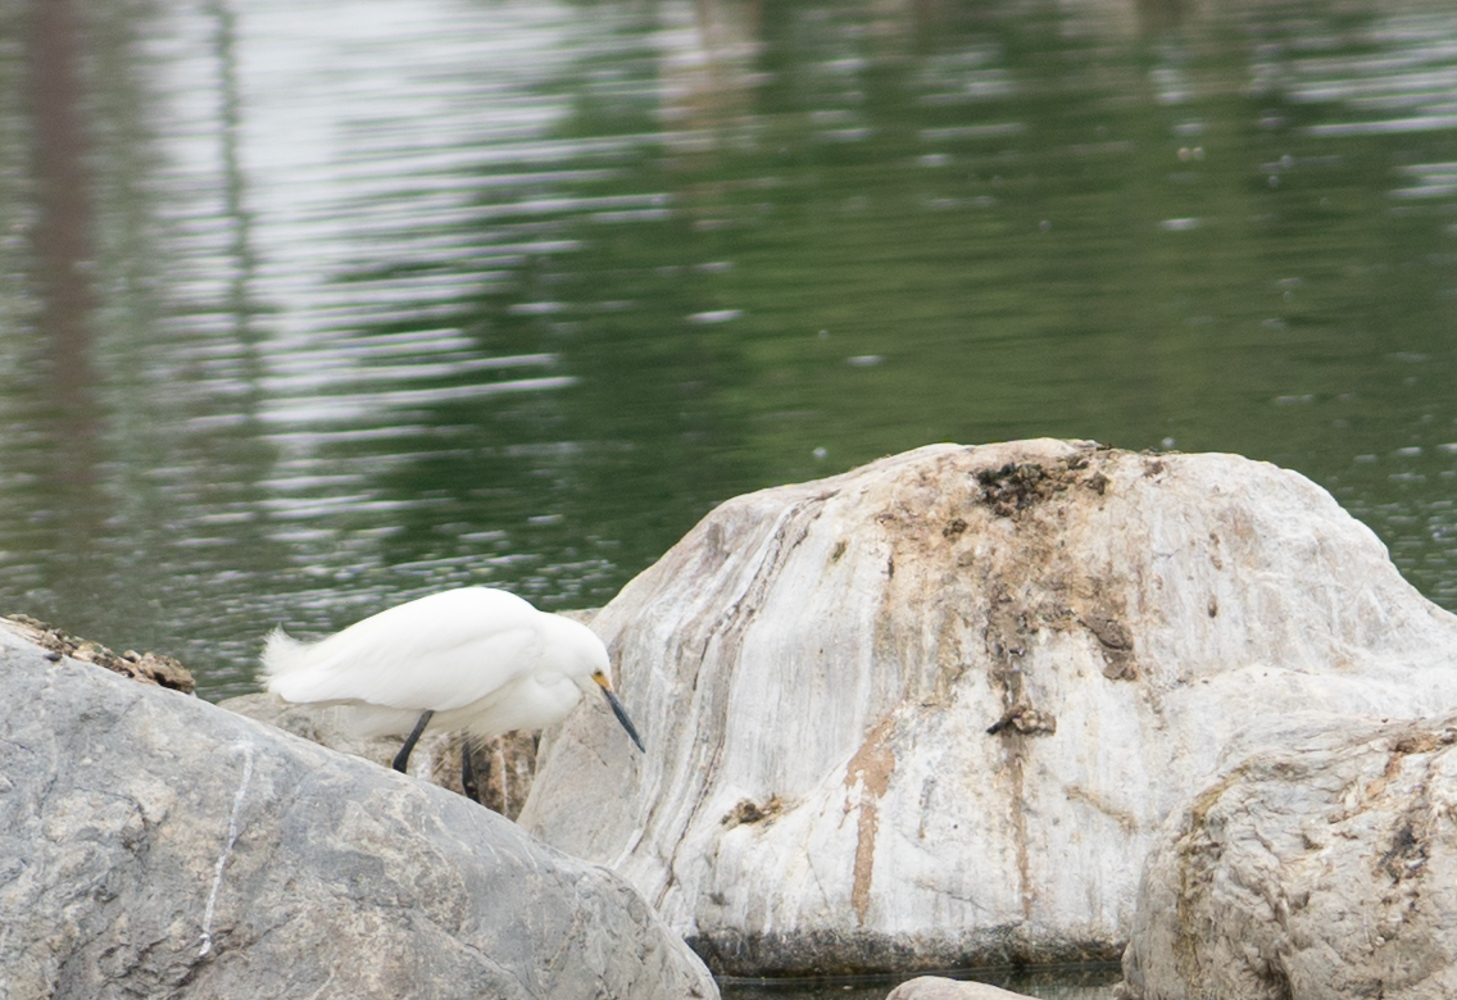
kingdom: Animalia
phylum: Chordata
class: Aves
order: Pelecaniformes
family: Ardeidae
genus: Egretta
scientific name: Egretta thula
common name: Snowy egret
